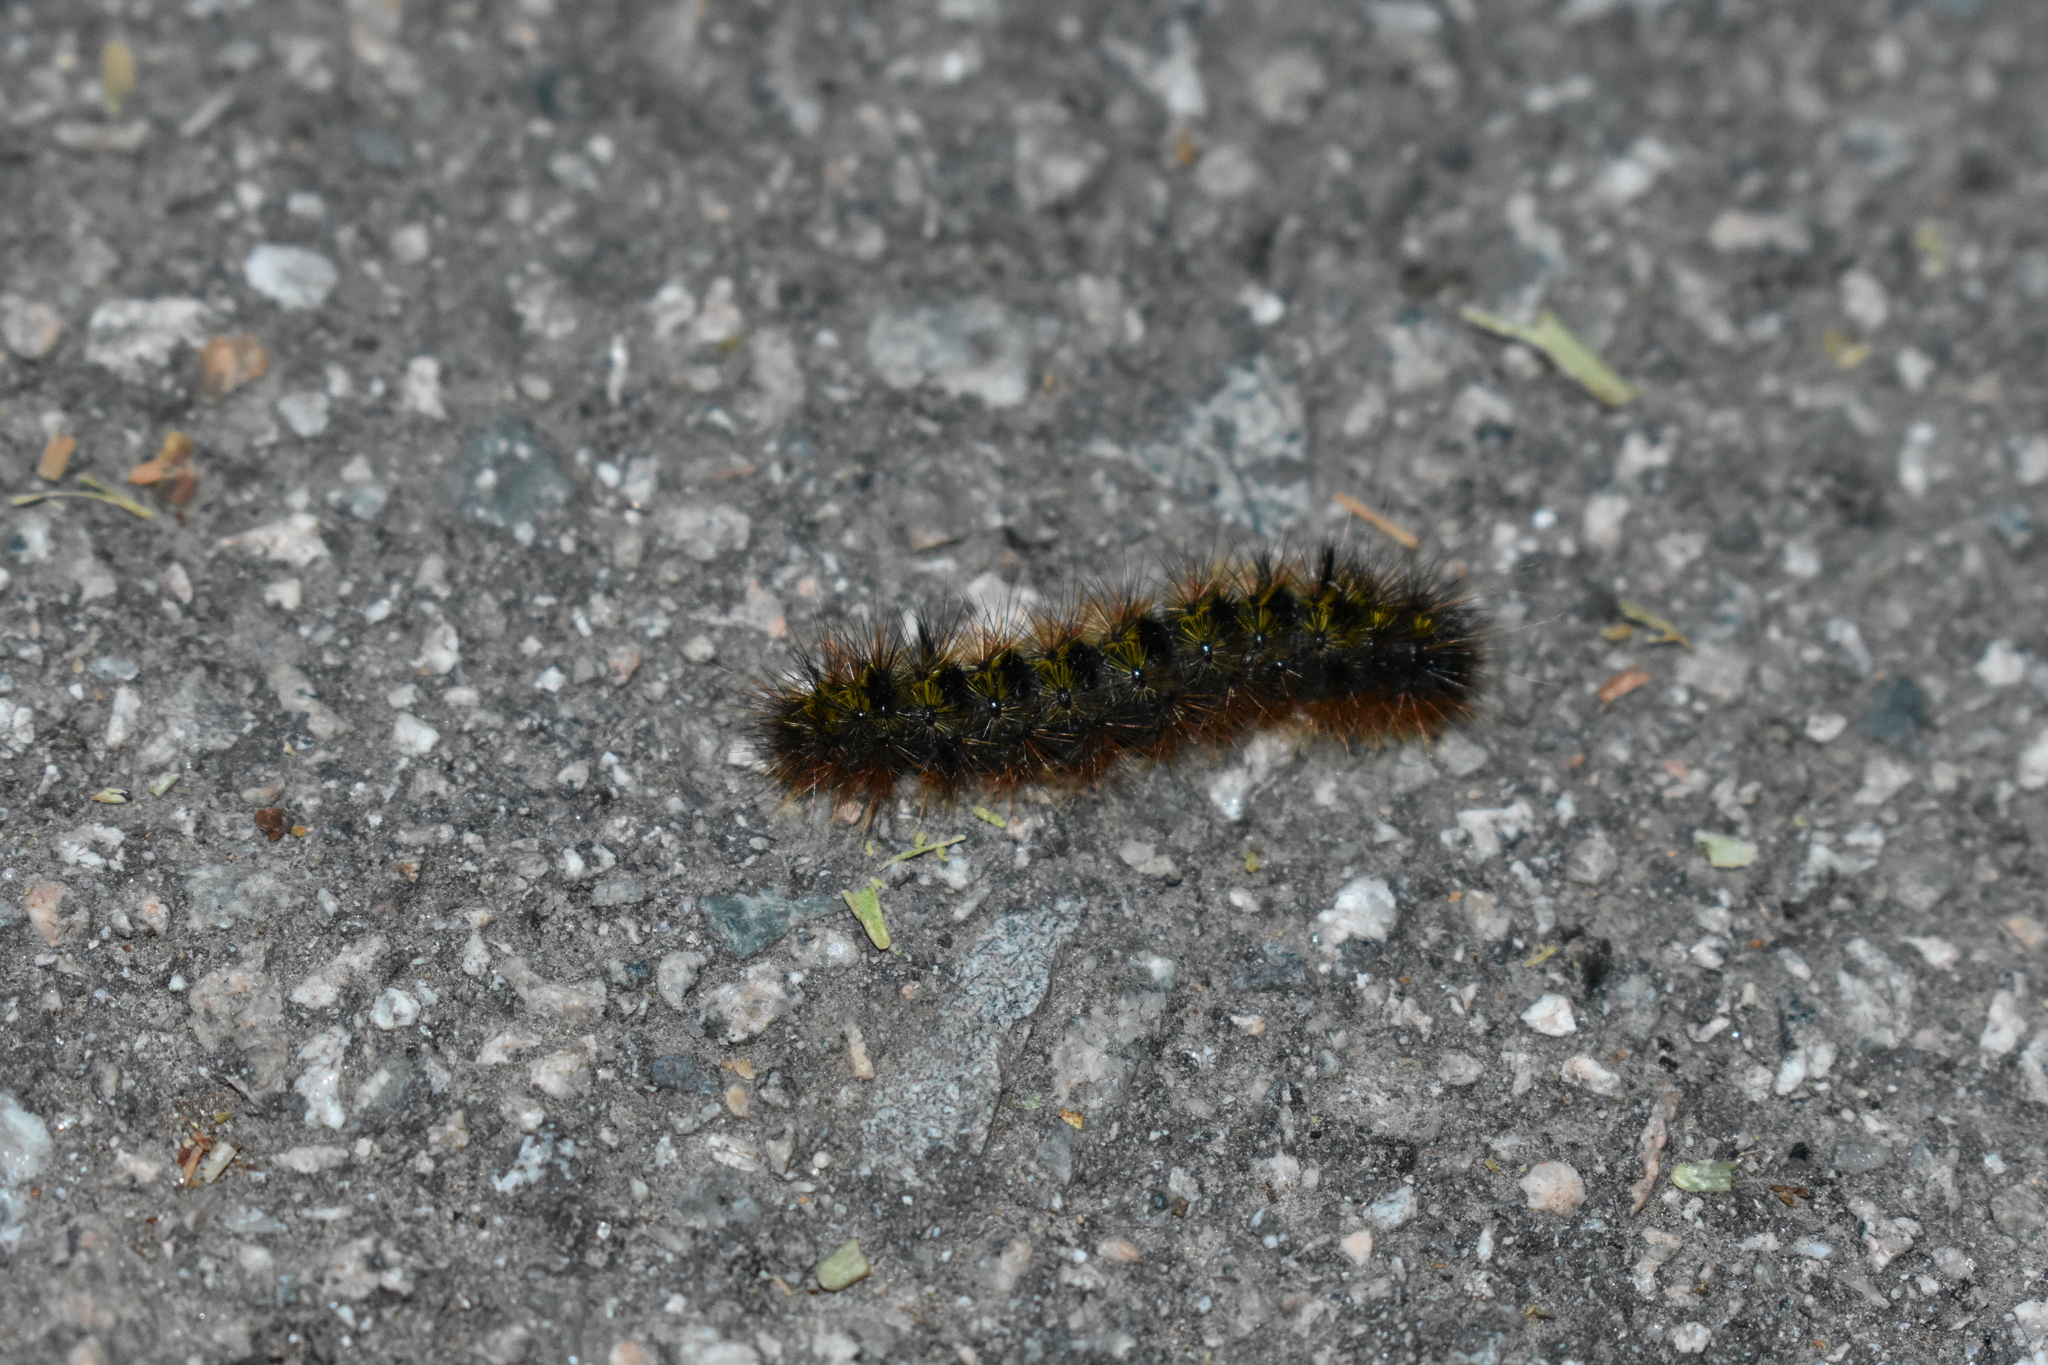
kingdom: Animalia
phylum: Arthropoda
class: Insecta
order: Lepidoptera
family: Erebidae
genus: Lophocampa
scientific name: Lophocampa argentata
